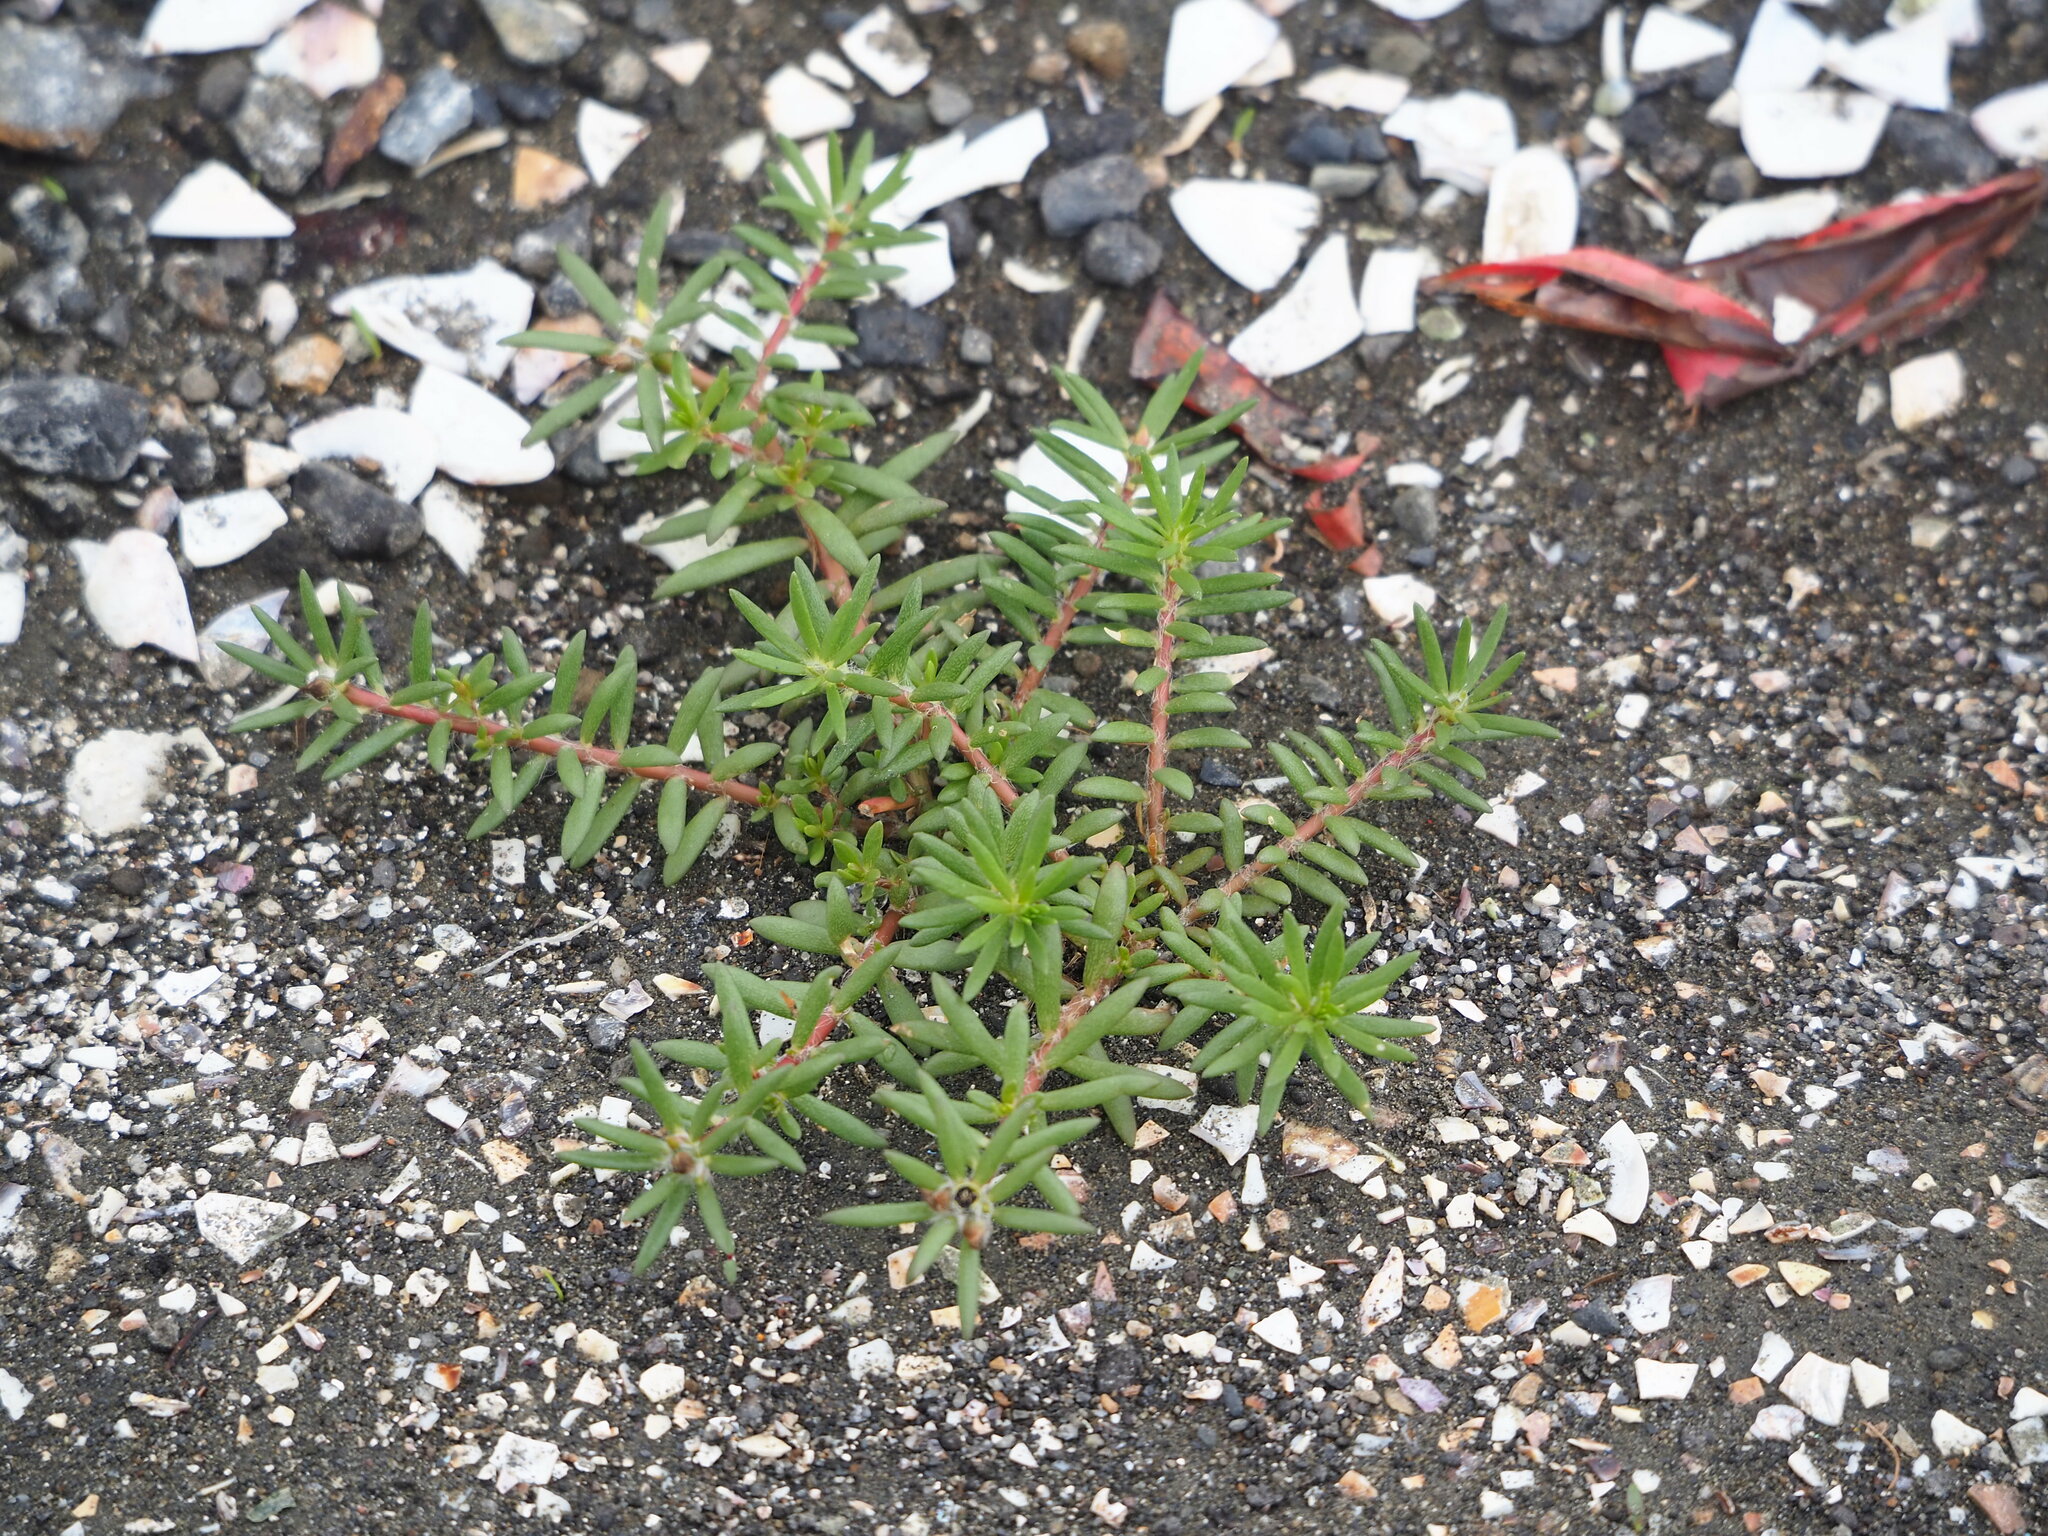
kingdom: Plantae
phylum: Tracheophyta
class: Magnoliopsida
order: Caryophyllales
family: Portulacaceae
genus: Portulaca
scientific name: Portulaca pilosa
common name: Kiss me quick
